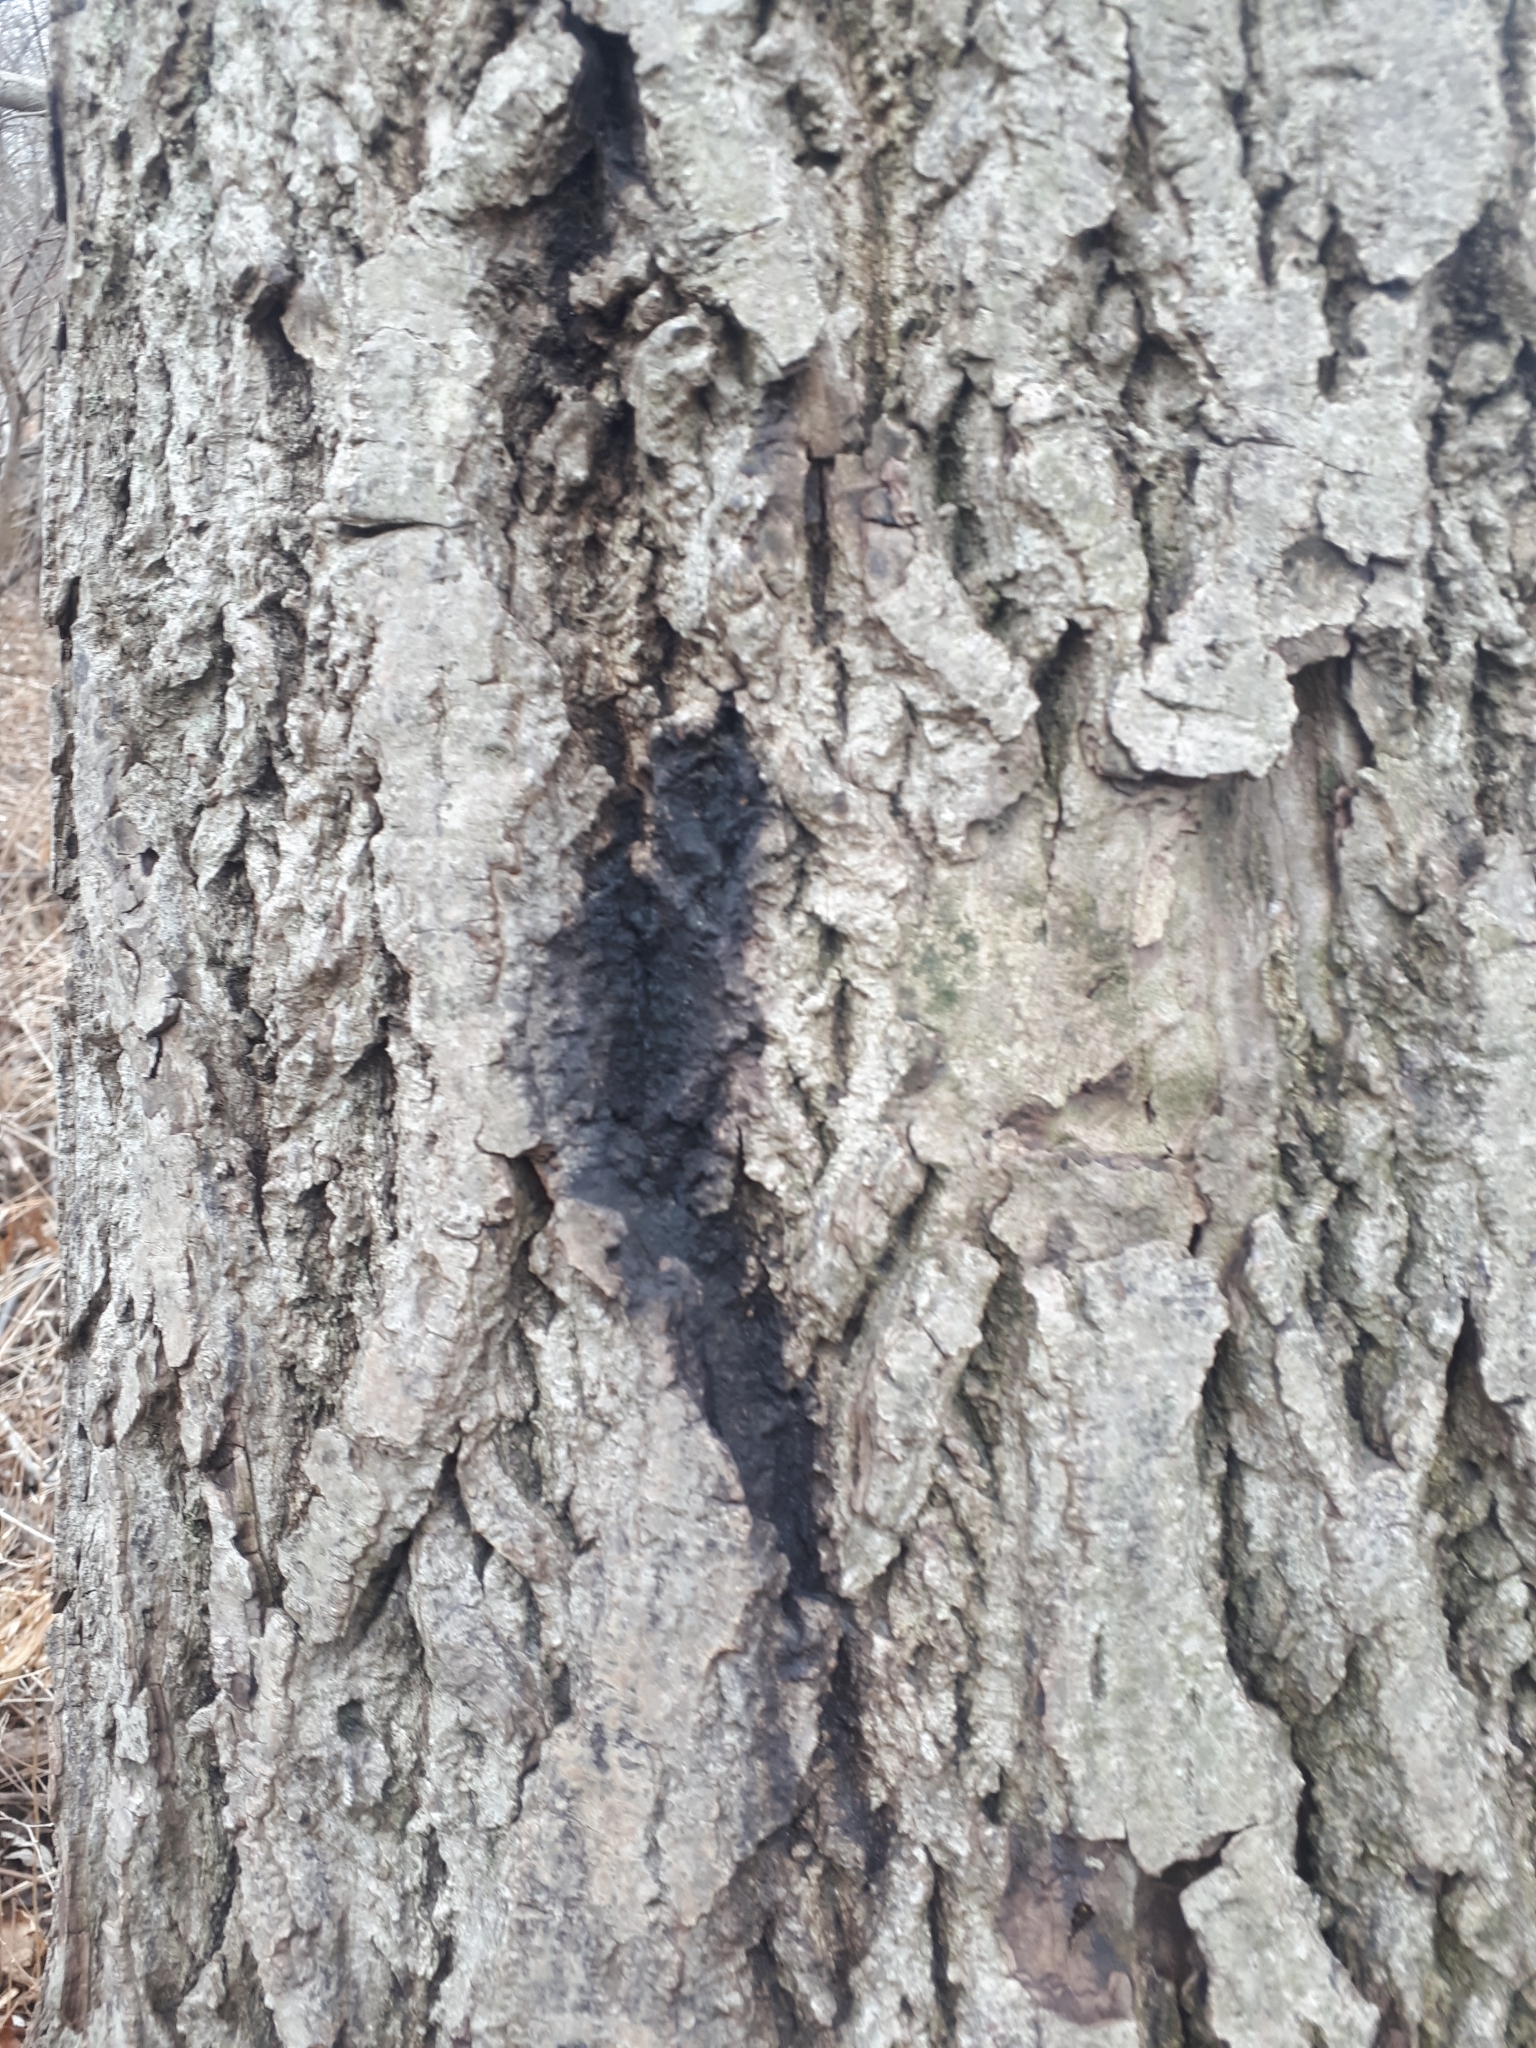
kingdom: Fungi
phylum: Ascomycota
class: Sordariomycetes
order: Diaporthales
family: Gnomoniaceae
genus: Ophiognomonia
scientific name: Ophiognomonia clavigignenti-juglandacearum
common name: Butternut canker fungus
